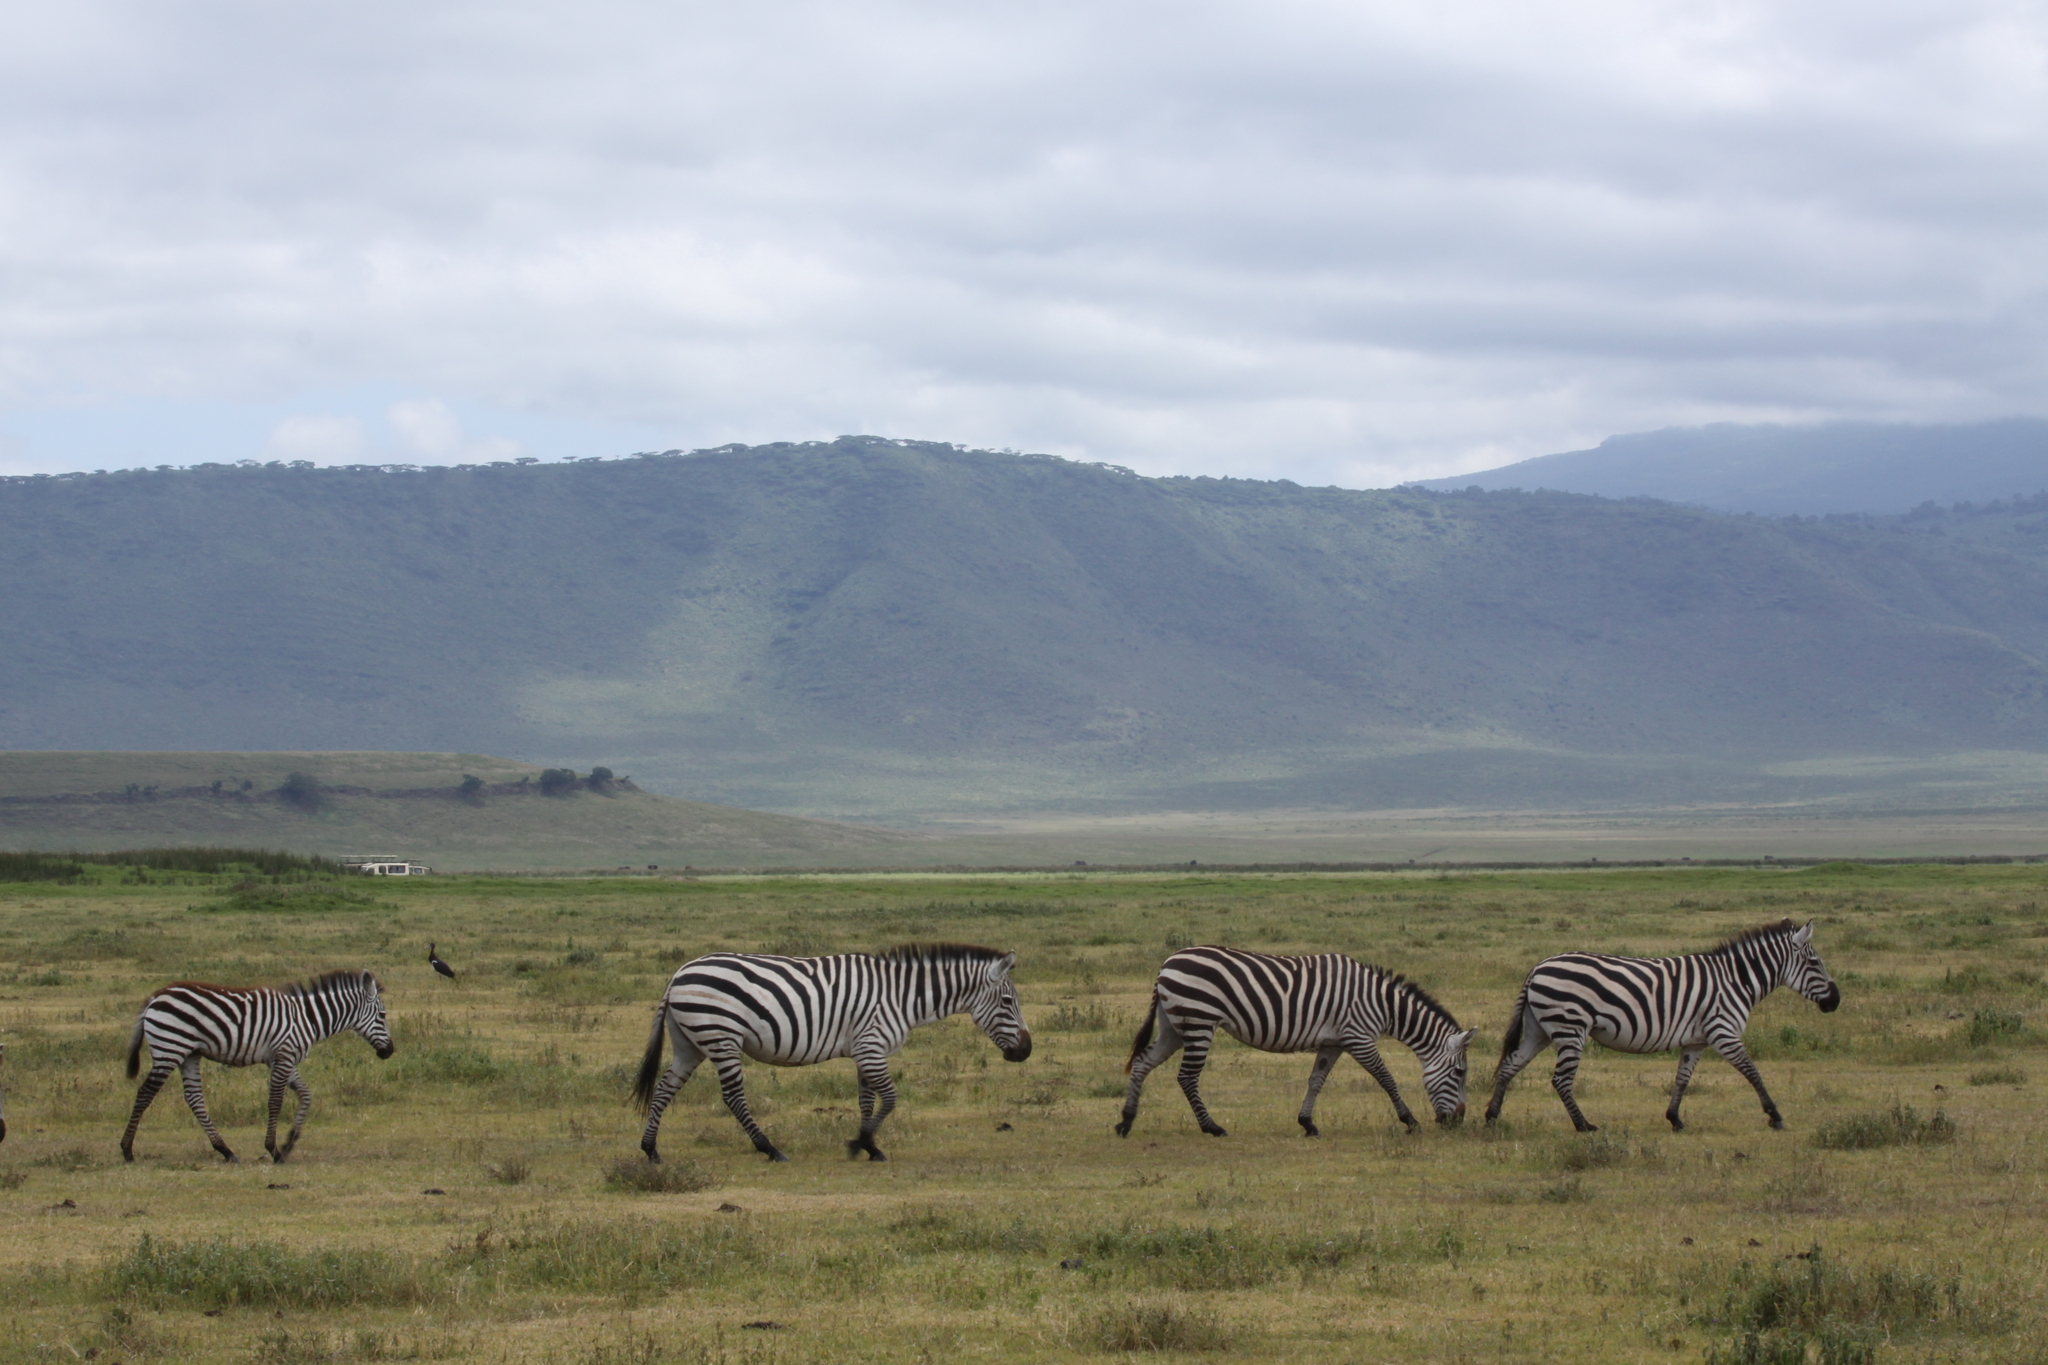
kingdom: Animalia
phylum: Chordata
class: Mammalia
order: Perissodactyla
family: Equidae
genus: Equus
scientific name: Equus quagga
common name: Plains zebra
